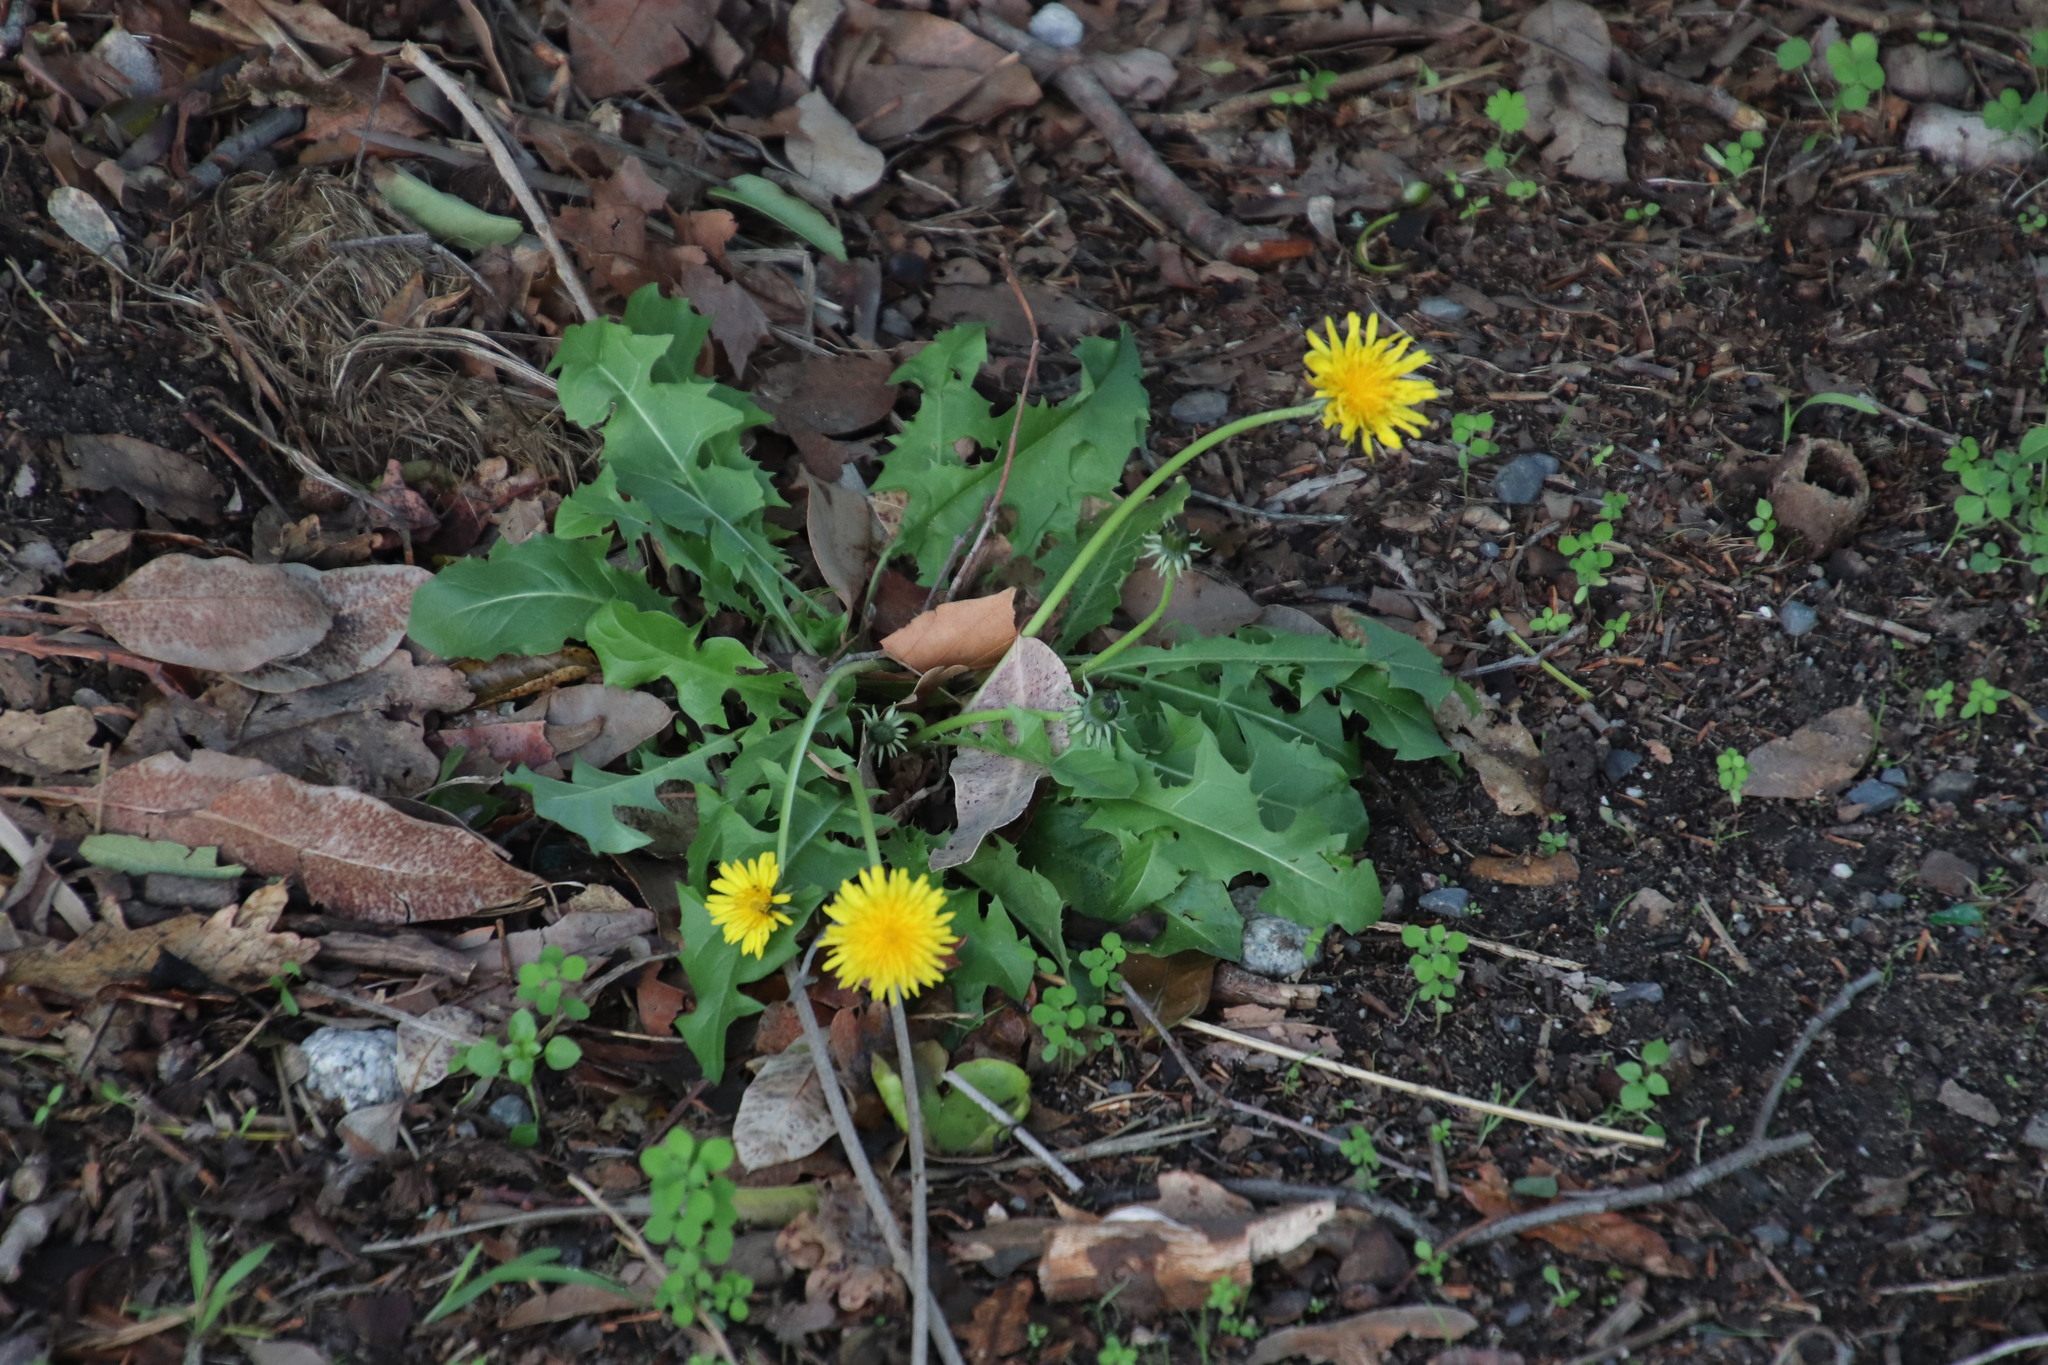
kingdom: Plantae
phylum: Tracheophyta
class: Magnoliopsida
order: Asterales
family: Asteraceae
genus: Taraxacum
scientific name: Taraxacum officinale
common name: Common dandelion
